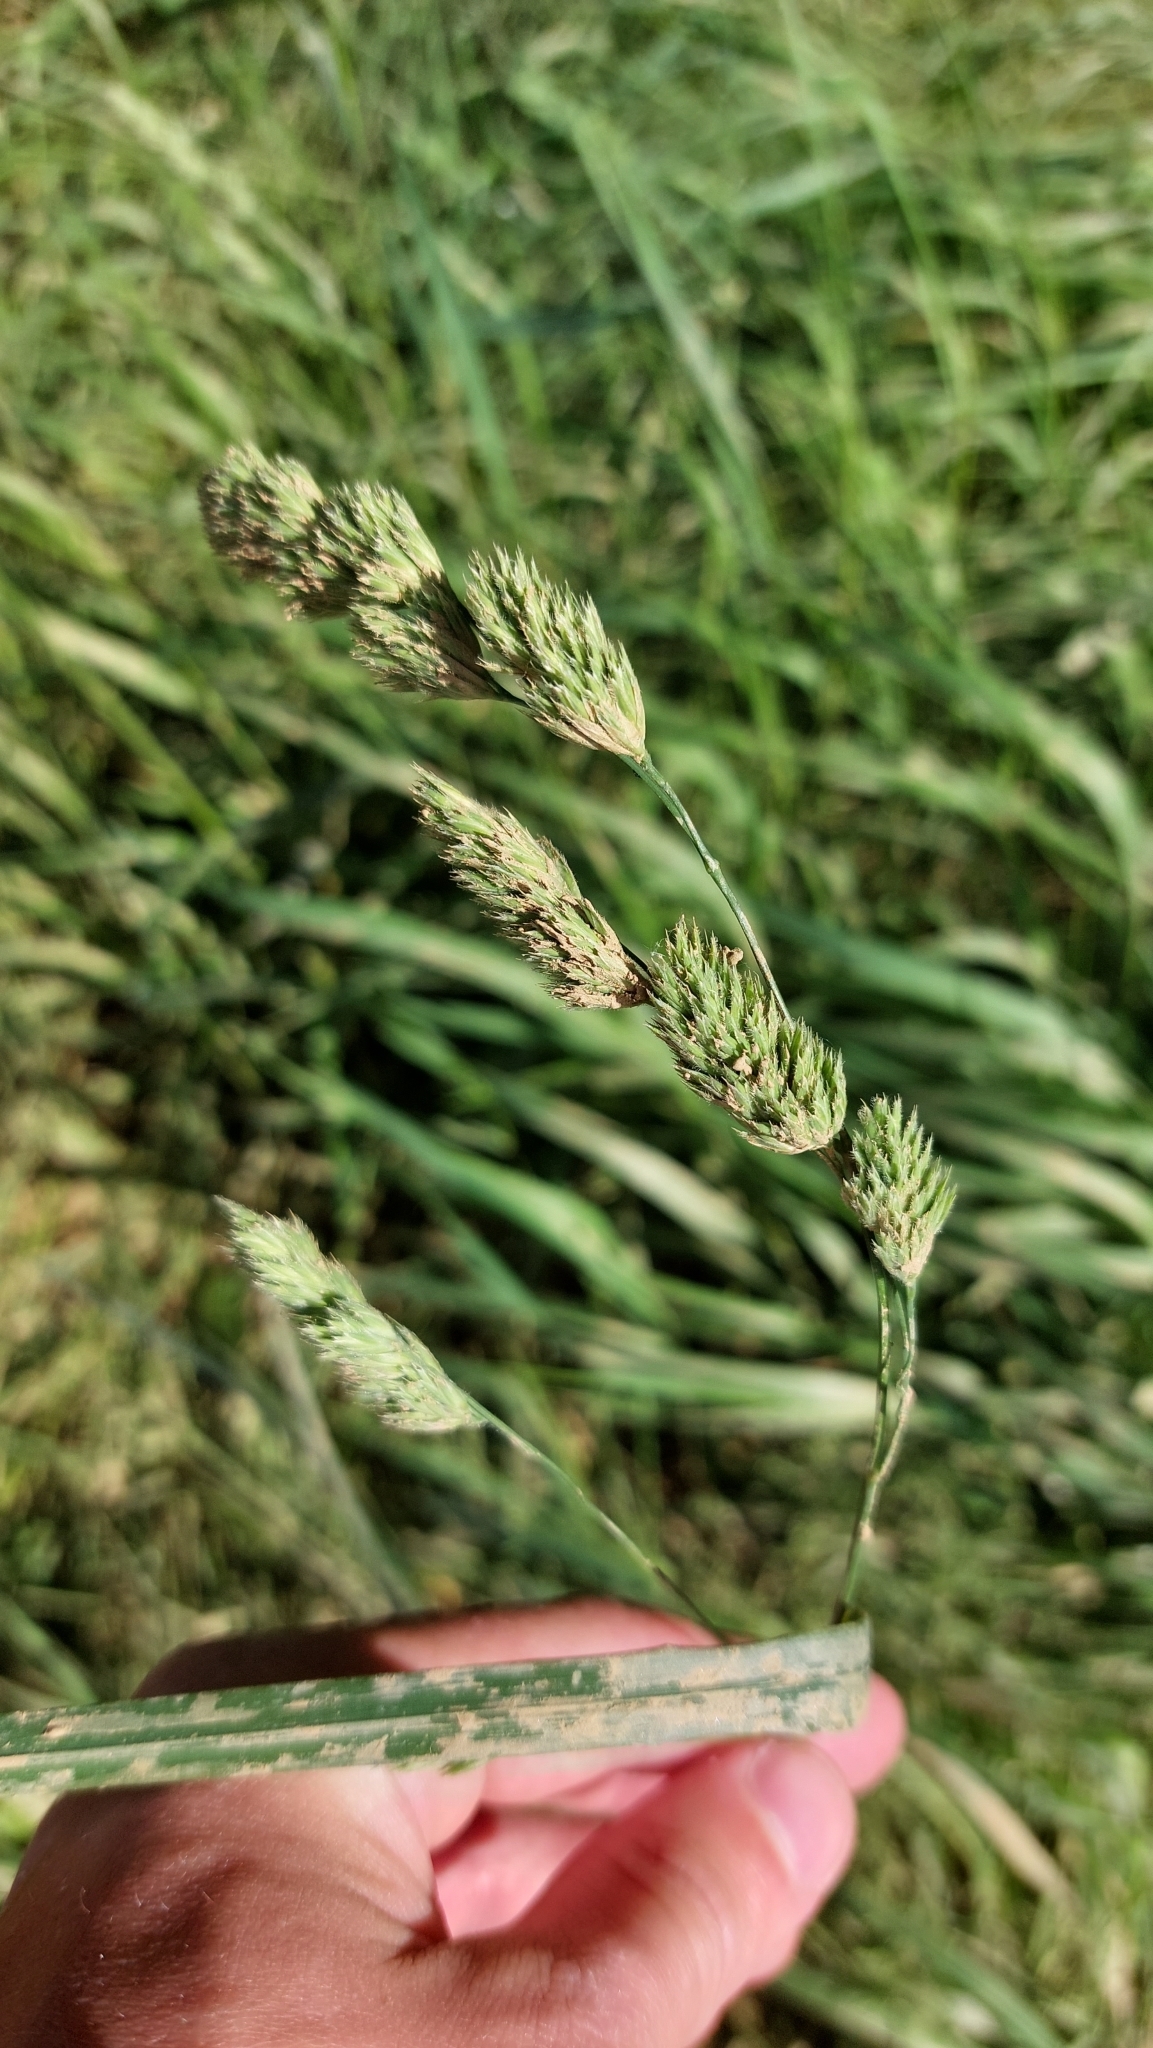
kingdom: Plantae
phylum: Tracheophyta
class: Liliopsida
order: Poales
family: Poaceae
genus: Dactylis
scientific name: Dactylis glomerata
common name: Orchardgrass
